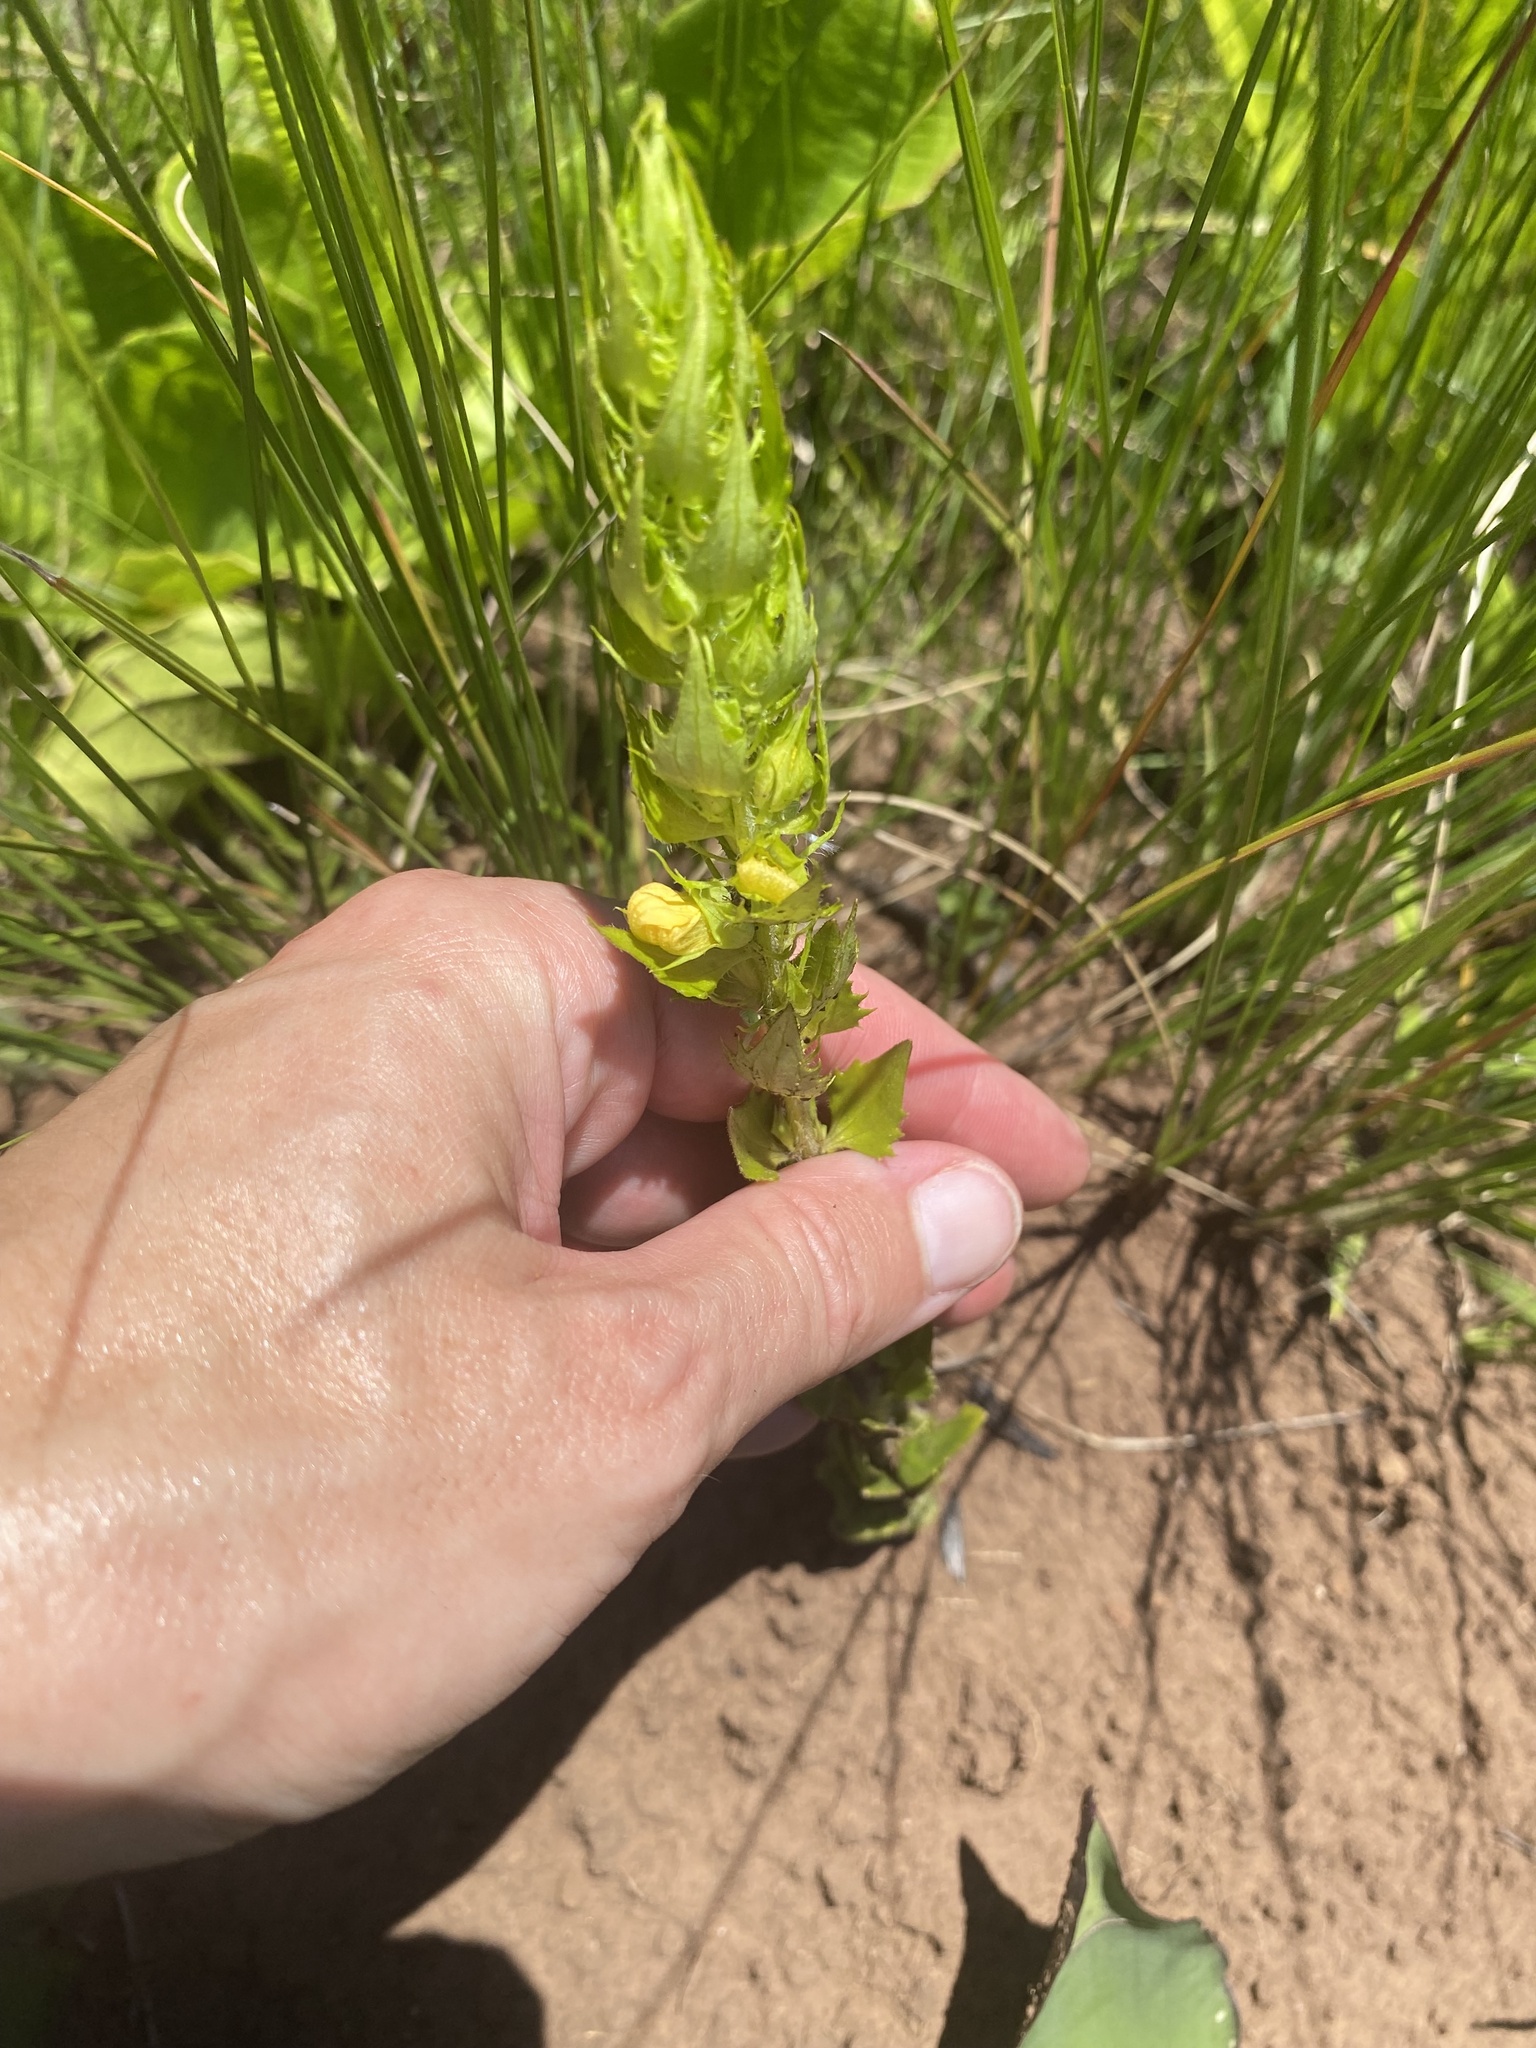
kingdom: Plantae
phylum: Tracheophyta
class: Magnoliopsida
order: Lamiales
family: Orobanchaceae
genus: Alectra
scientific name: Alectra sessiliflora
